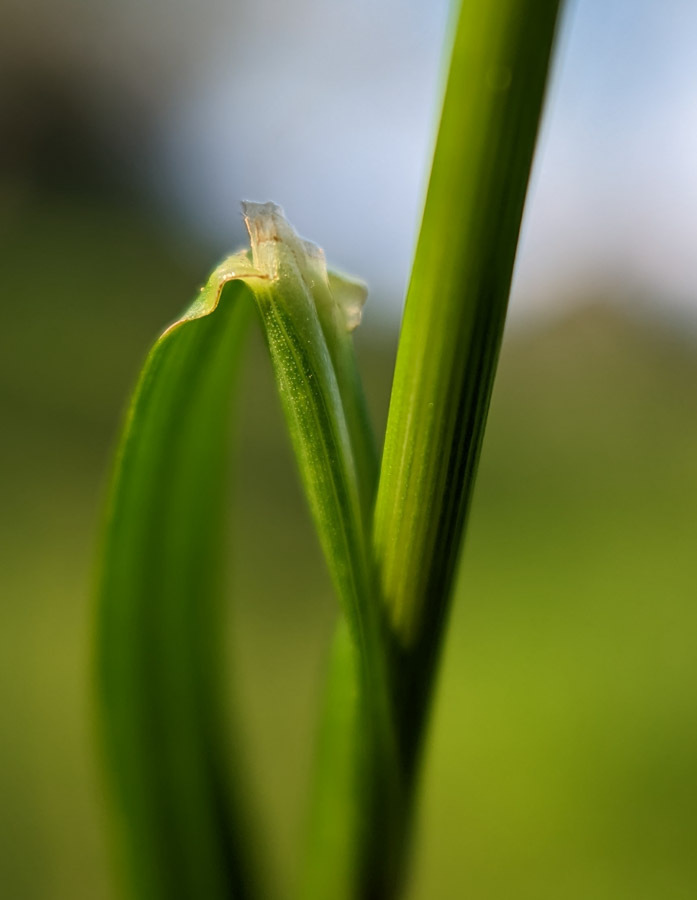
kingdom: Plantae
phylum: Tracheophyta
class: Liliopsida
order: Poales
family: Poaceae
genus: Lolium
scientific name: Lolium perenne
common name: Perennial ryegrass
